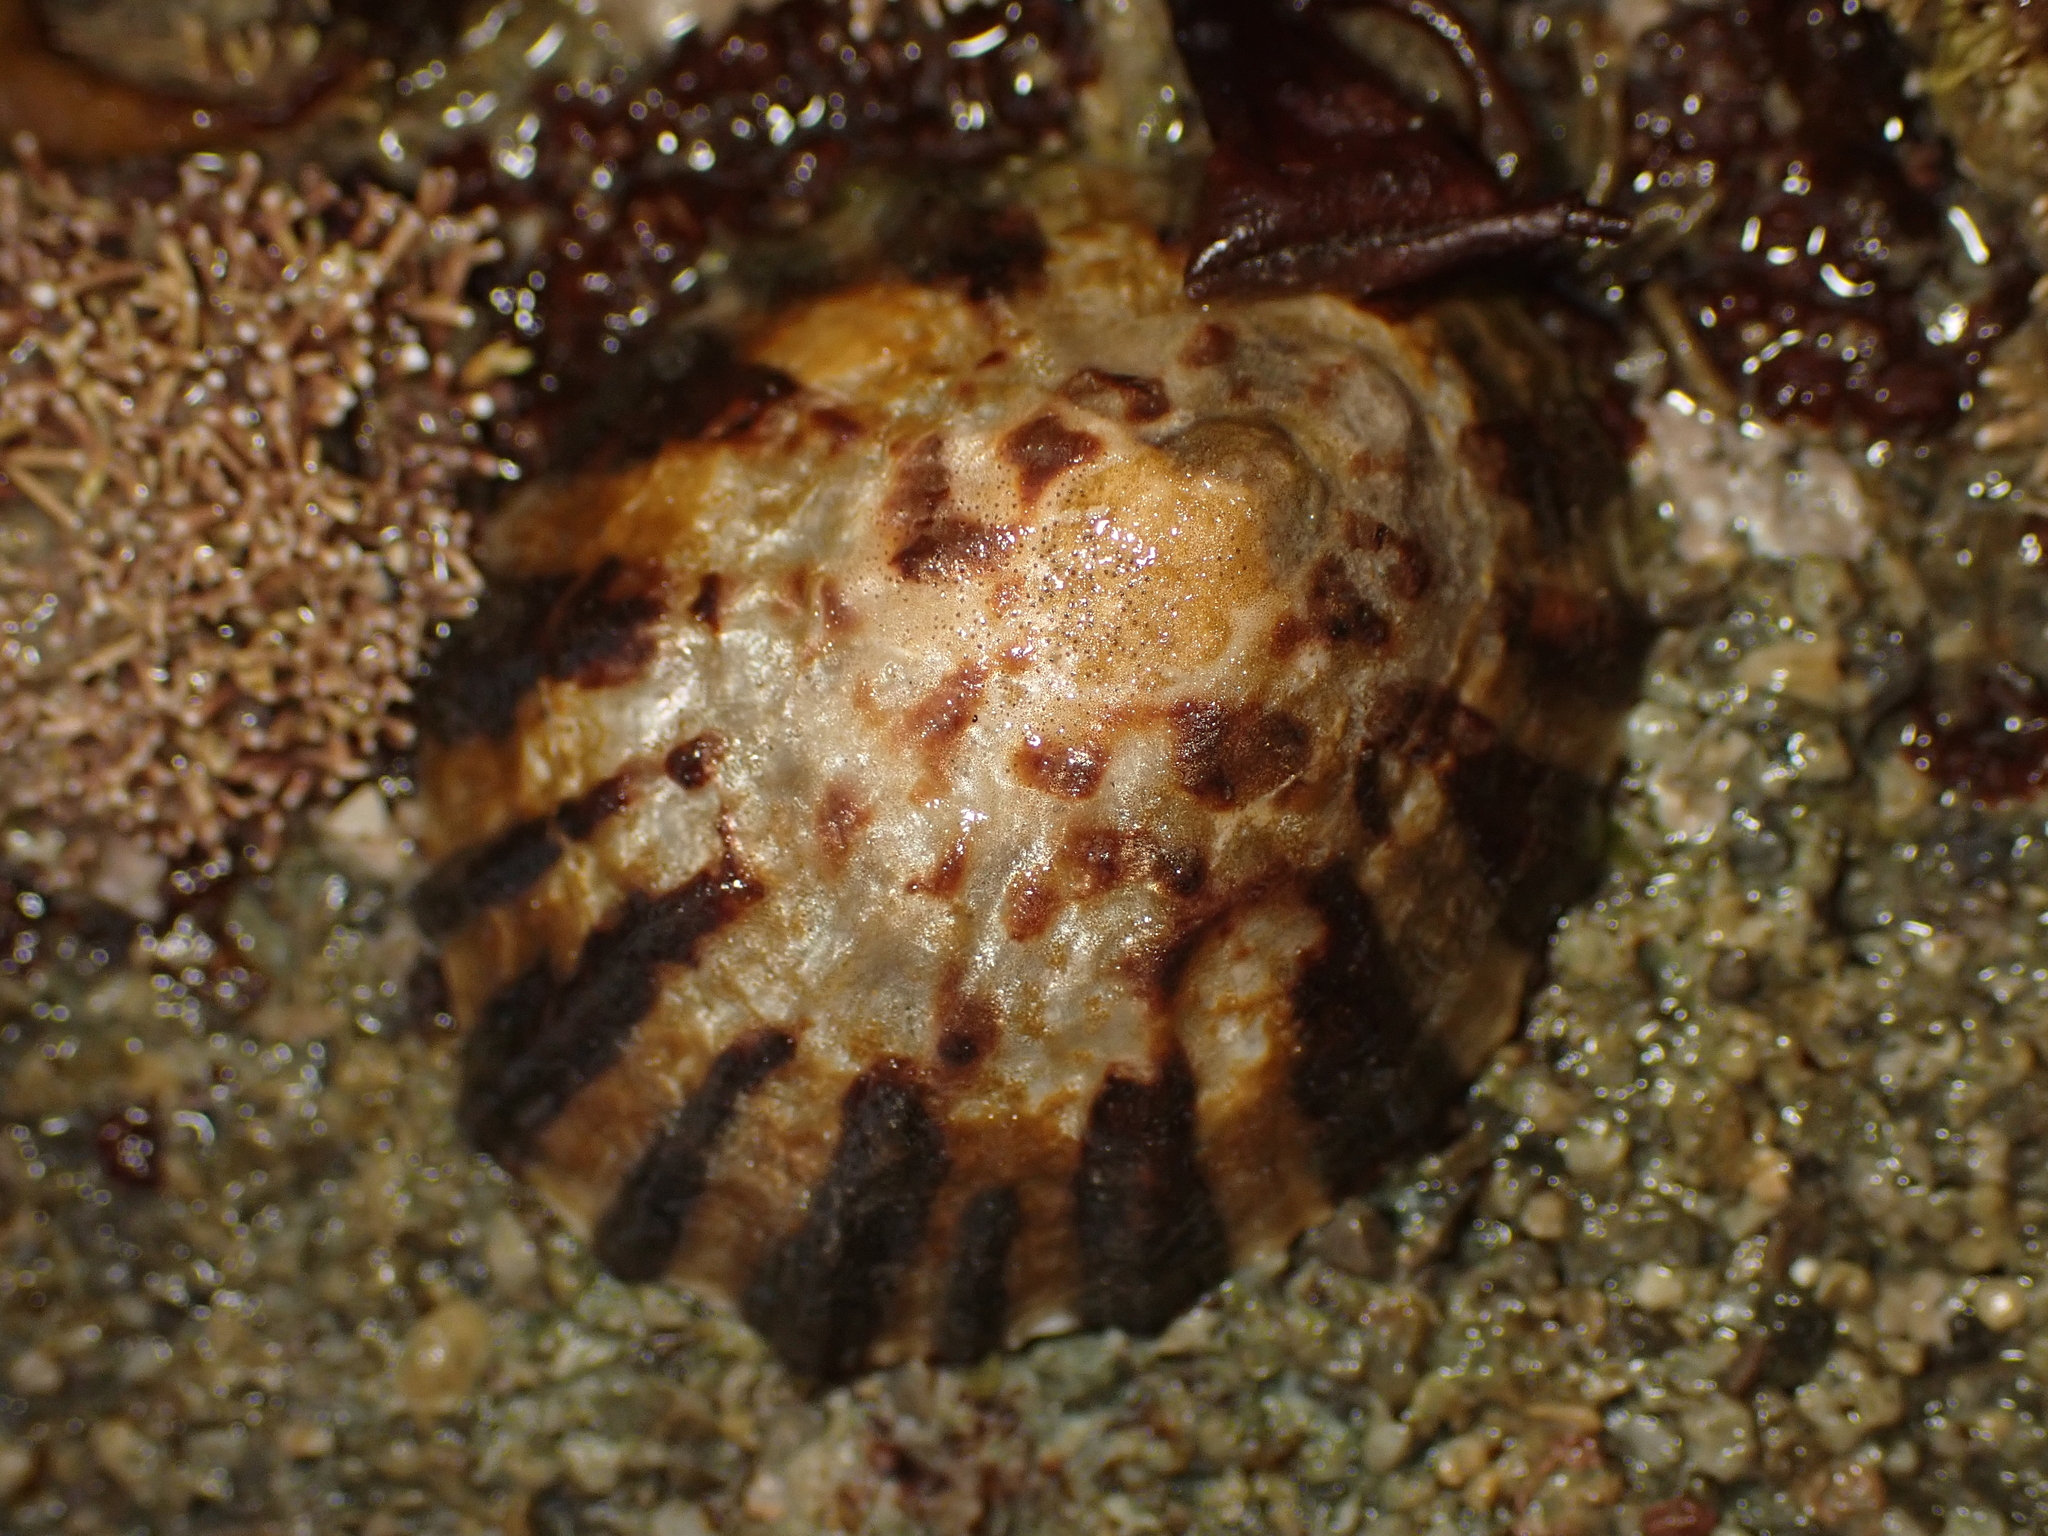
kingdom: Animalia
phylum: Mollusca
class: Gastropoda
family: Nacellidae
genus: Cellana
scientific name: Cellana radians
